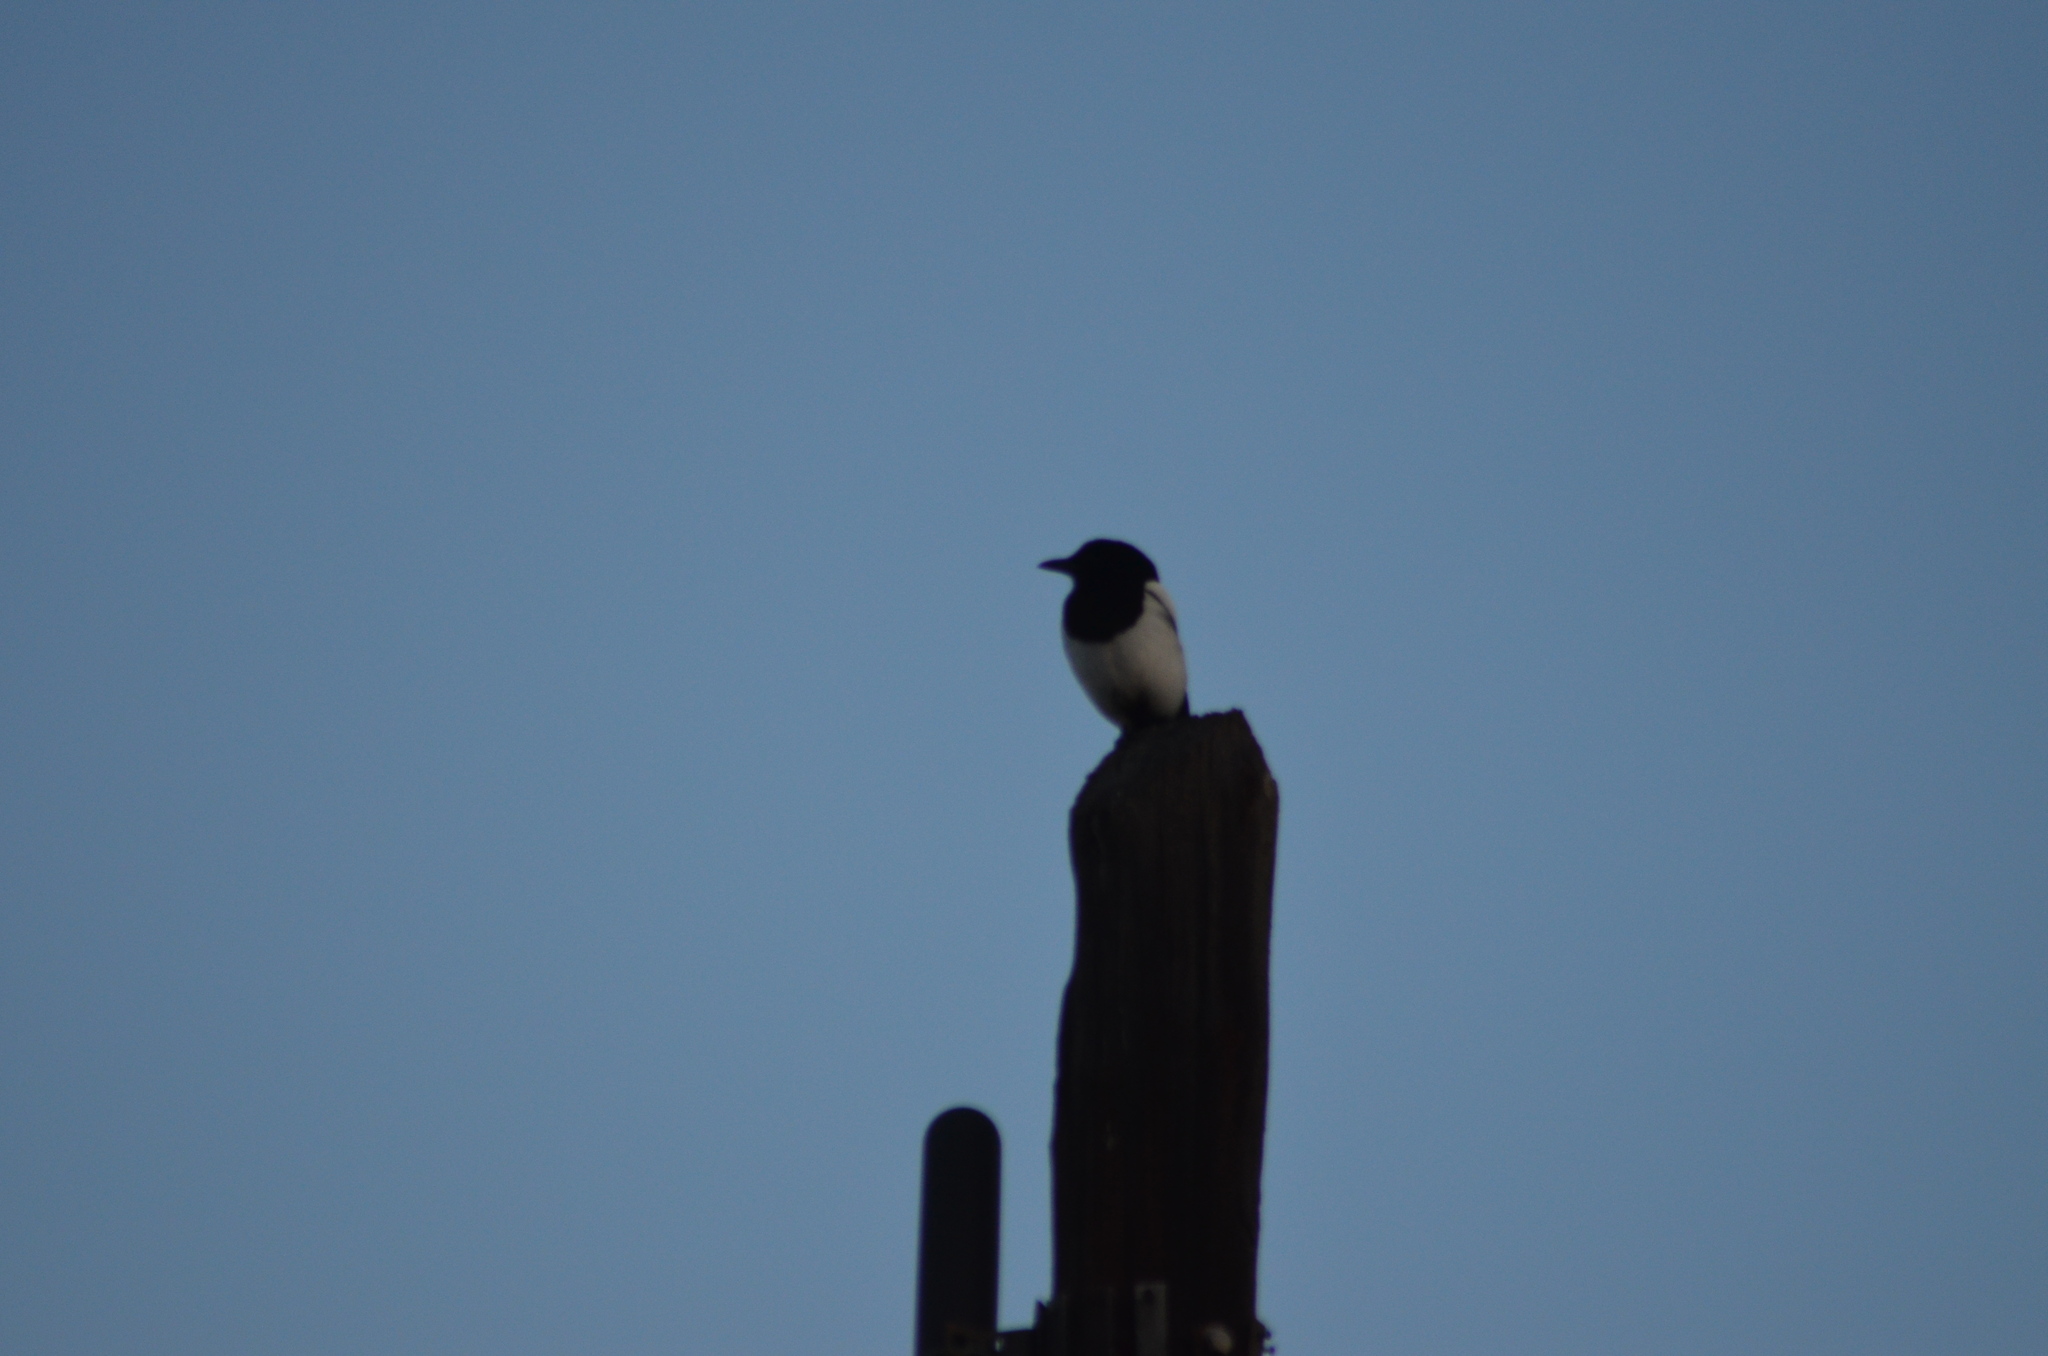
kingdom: Animalia
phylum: Chordata
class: Aves
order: Passeriformes
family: Corvidae
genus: Pica
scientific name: Pica pica
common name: Eurasian magpie
